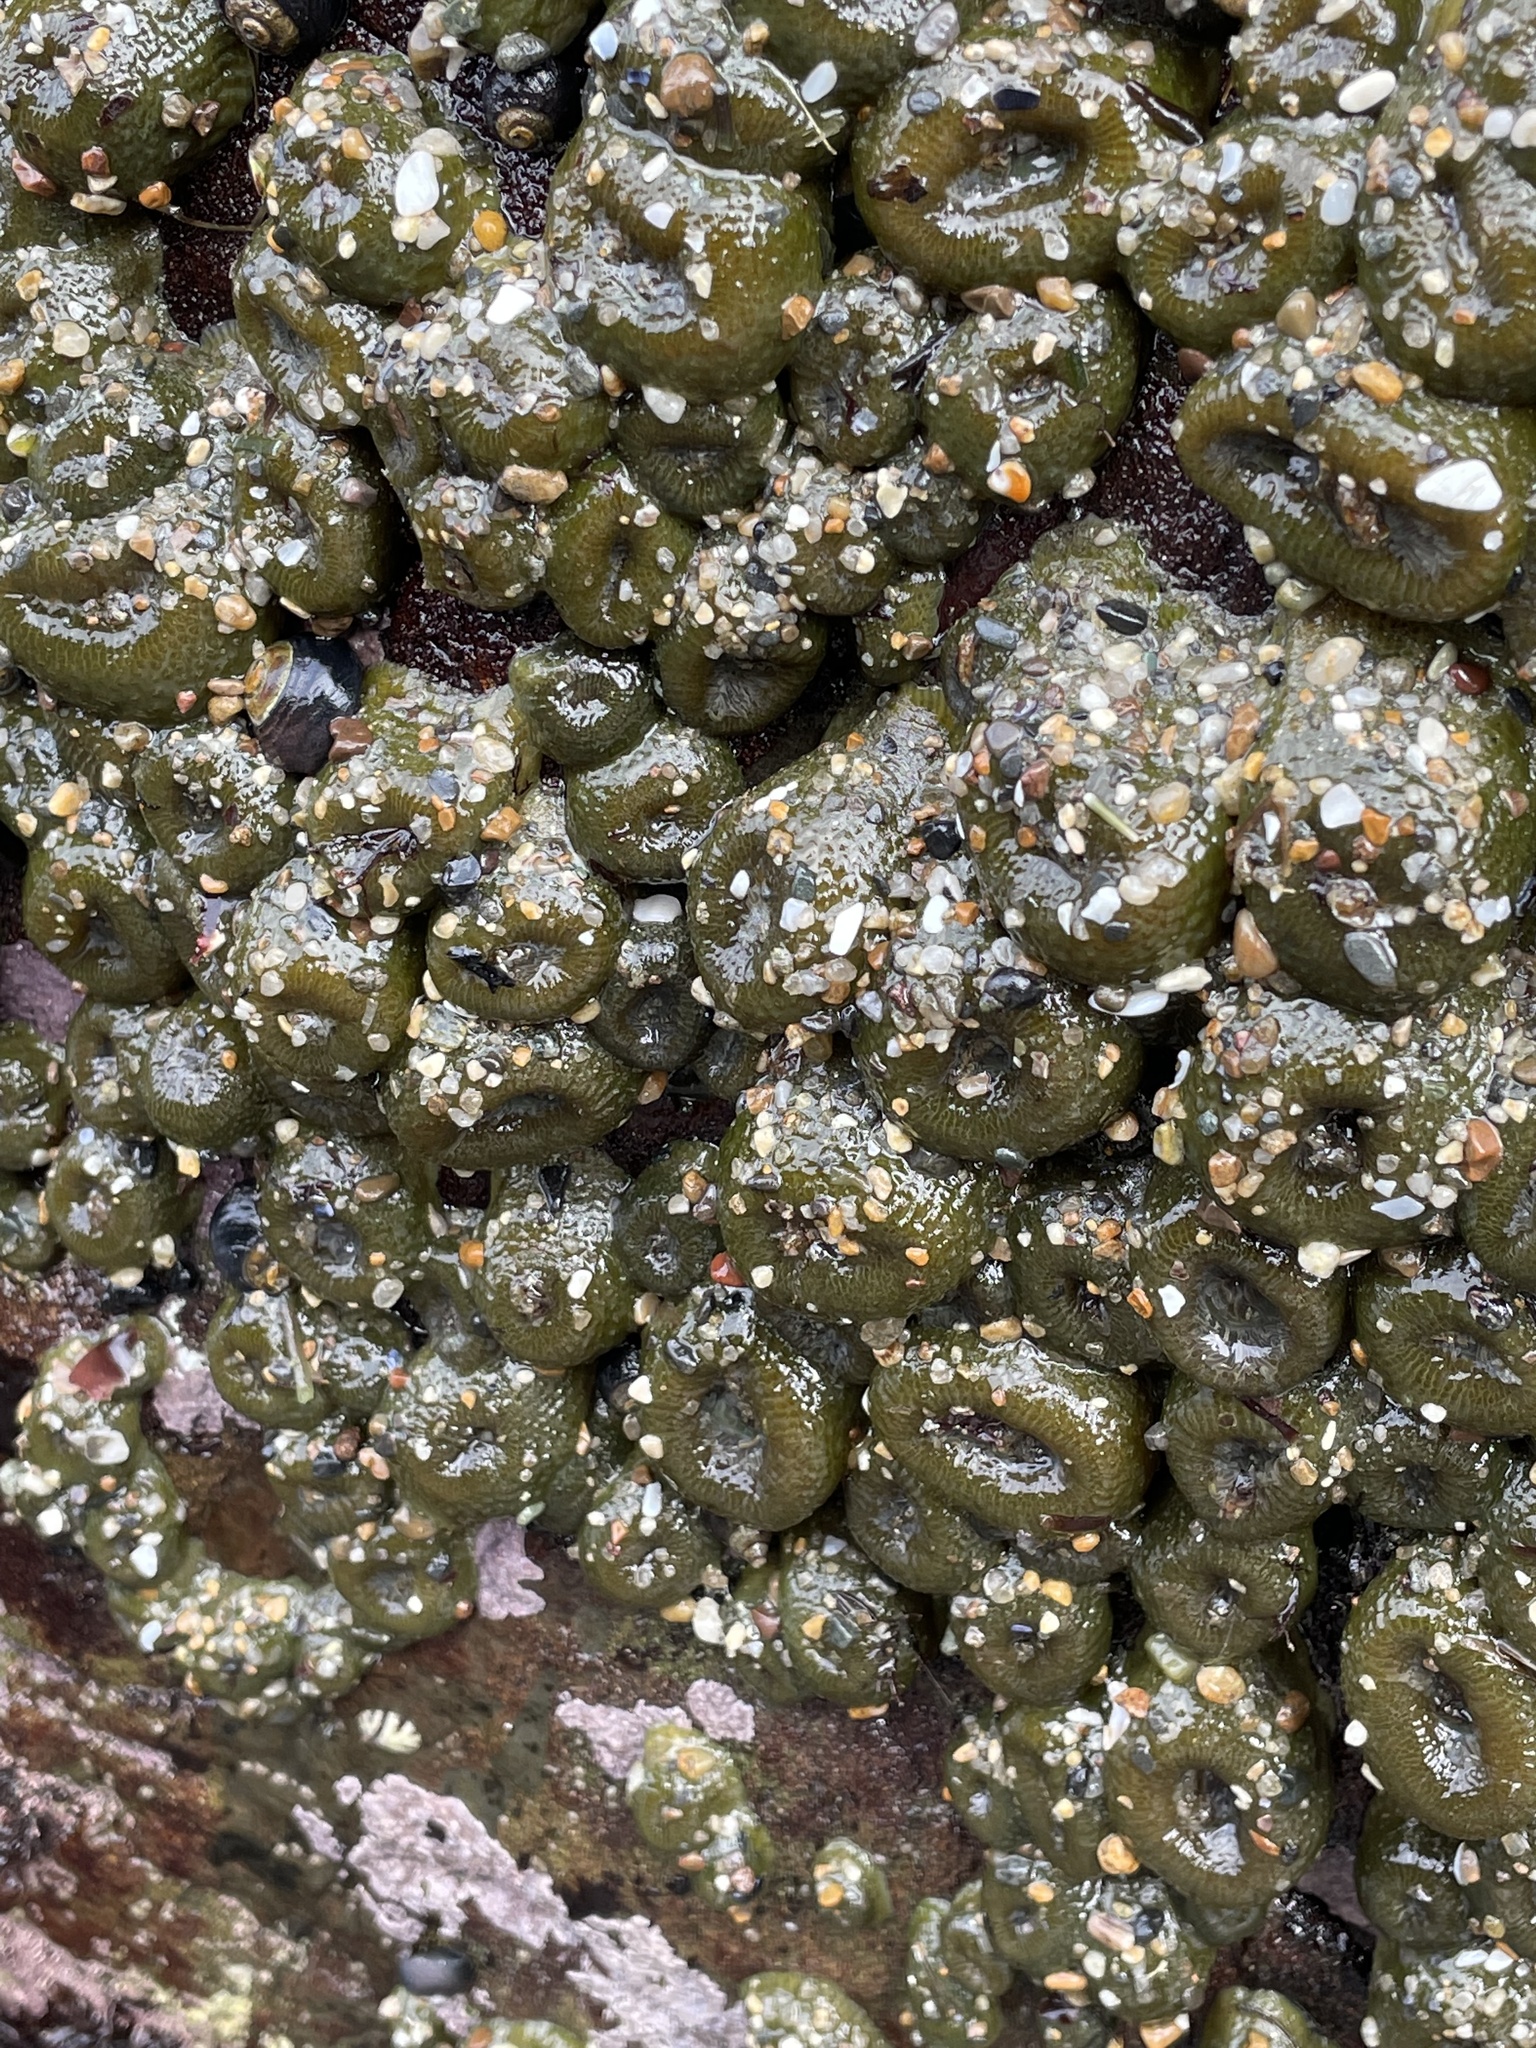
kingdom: Animalia
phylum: Cnidaria
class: Anthozoa
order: Actiniaria
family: Actiniidae
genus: Anthopleura
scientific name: Anthopleura elegantissima
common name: Clonal anemone
